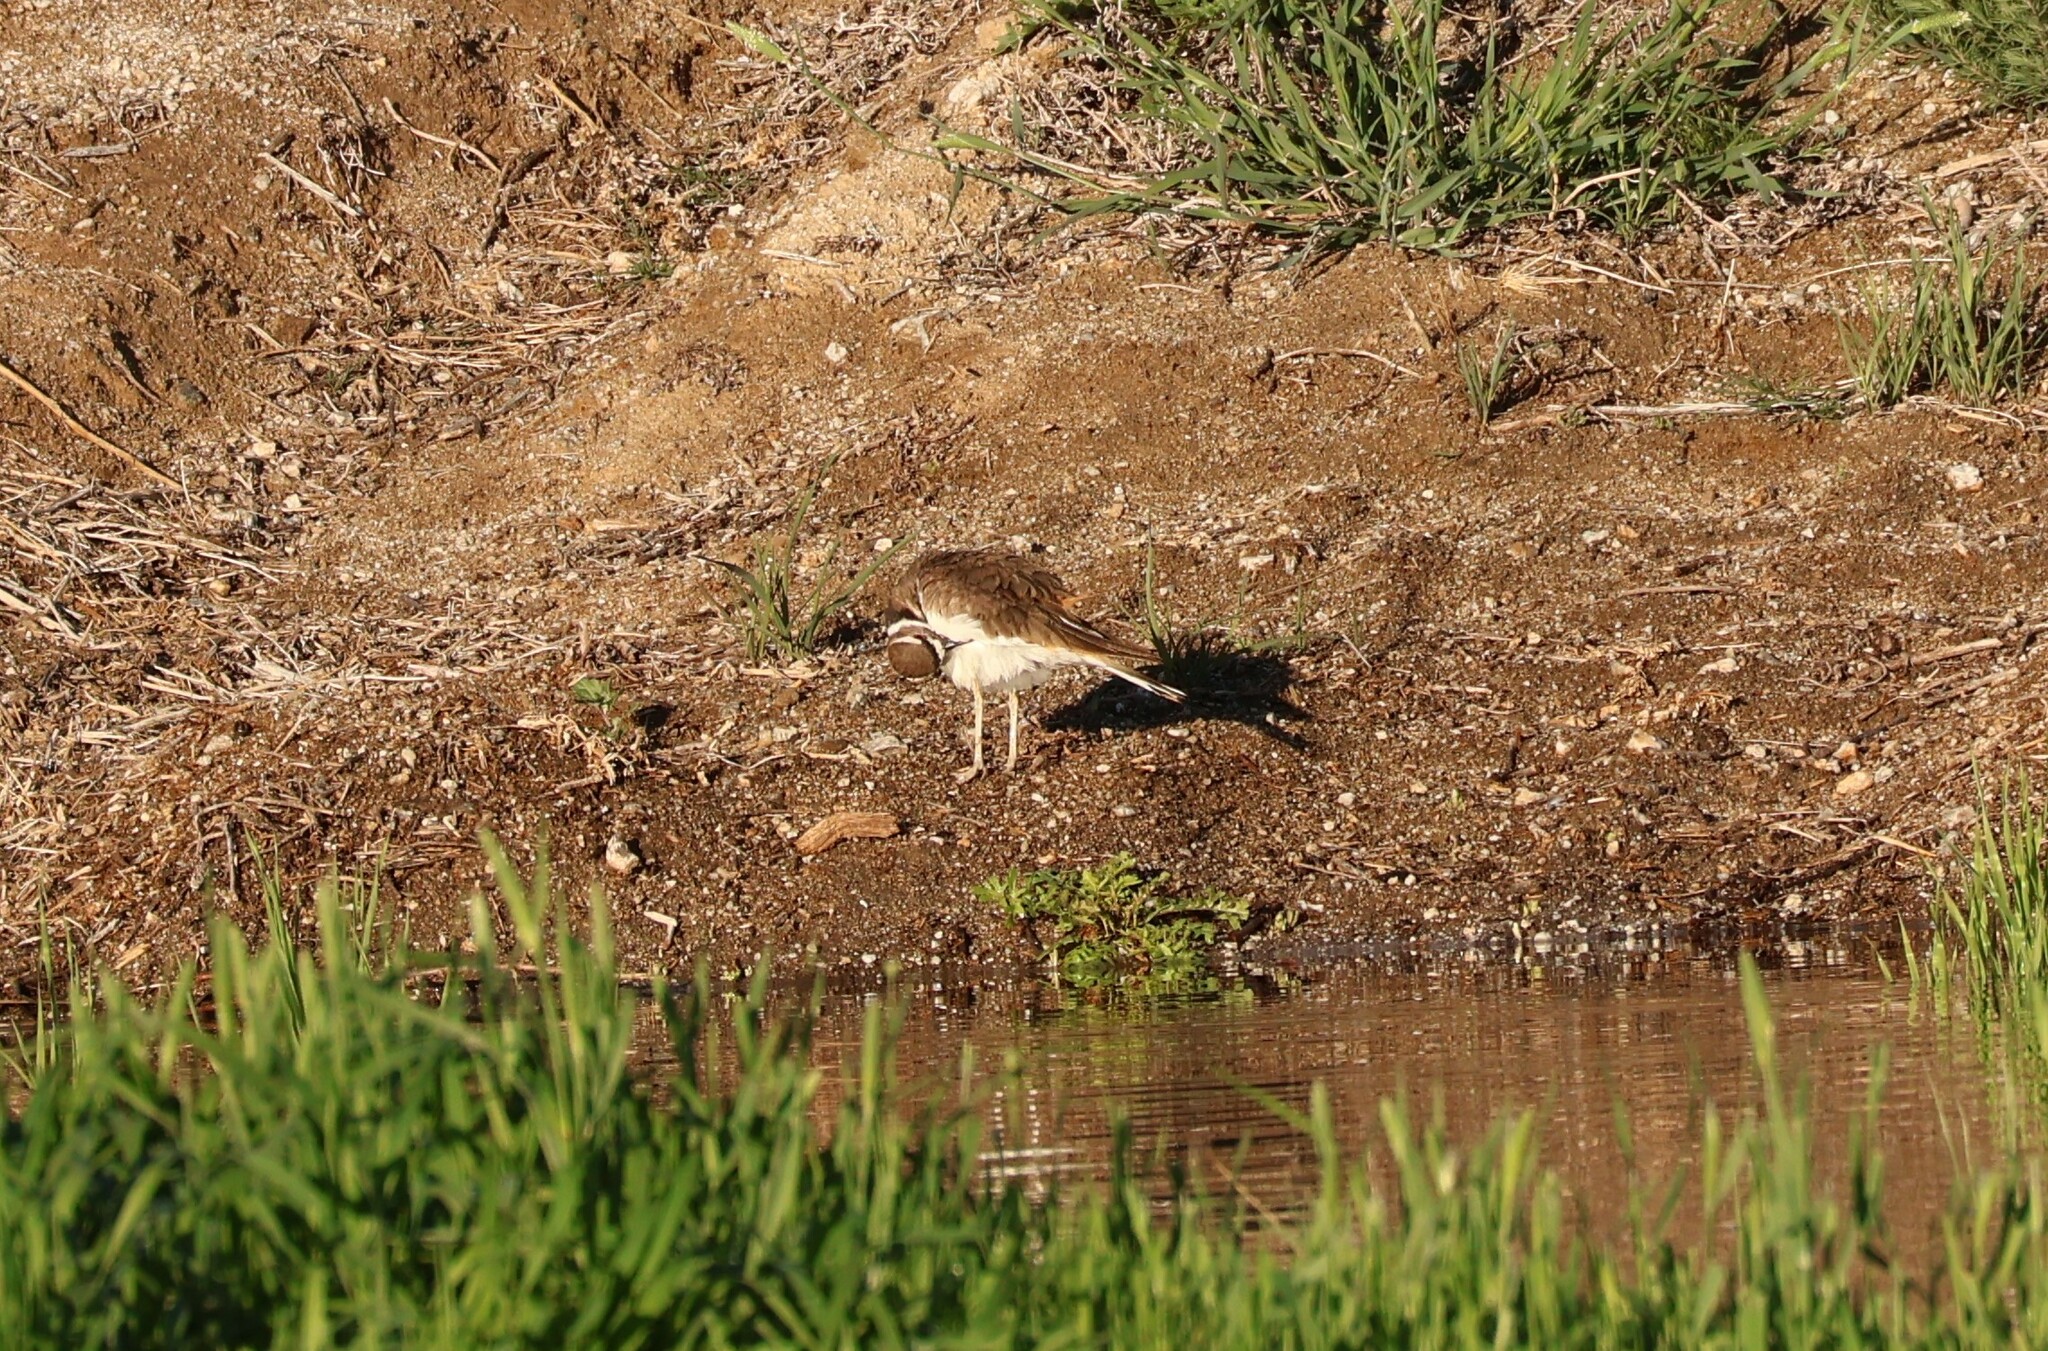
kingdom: Animalia
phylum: Chordata
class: Aves
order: Charadriiformes
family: Charadriidae
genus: Charadrius
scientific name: Charadrius vociferus
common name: Killdeer
